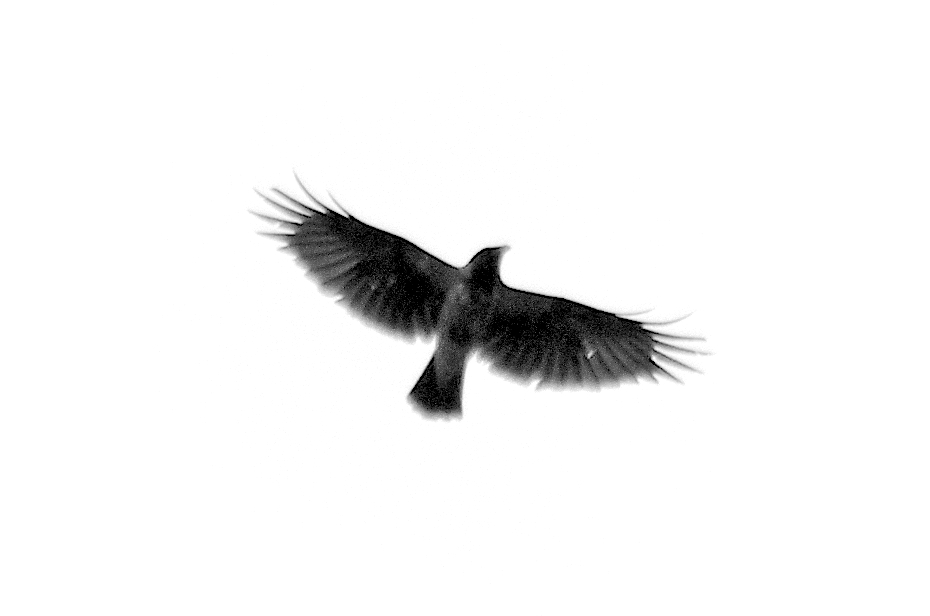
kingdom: Animalia
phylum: Chordata
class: Aves
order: Passeriformes
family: Corvidae
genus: Corvus
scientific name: Corvus cornix
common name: Hooded crow
